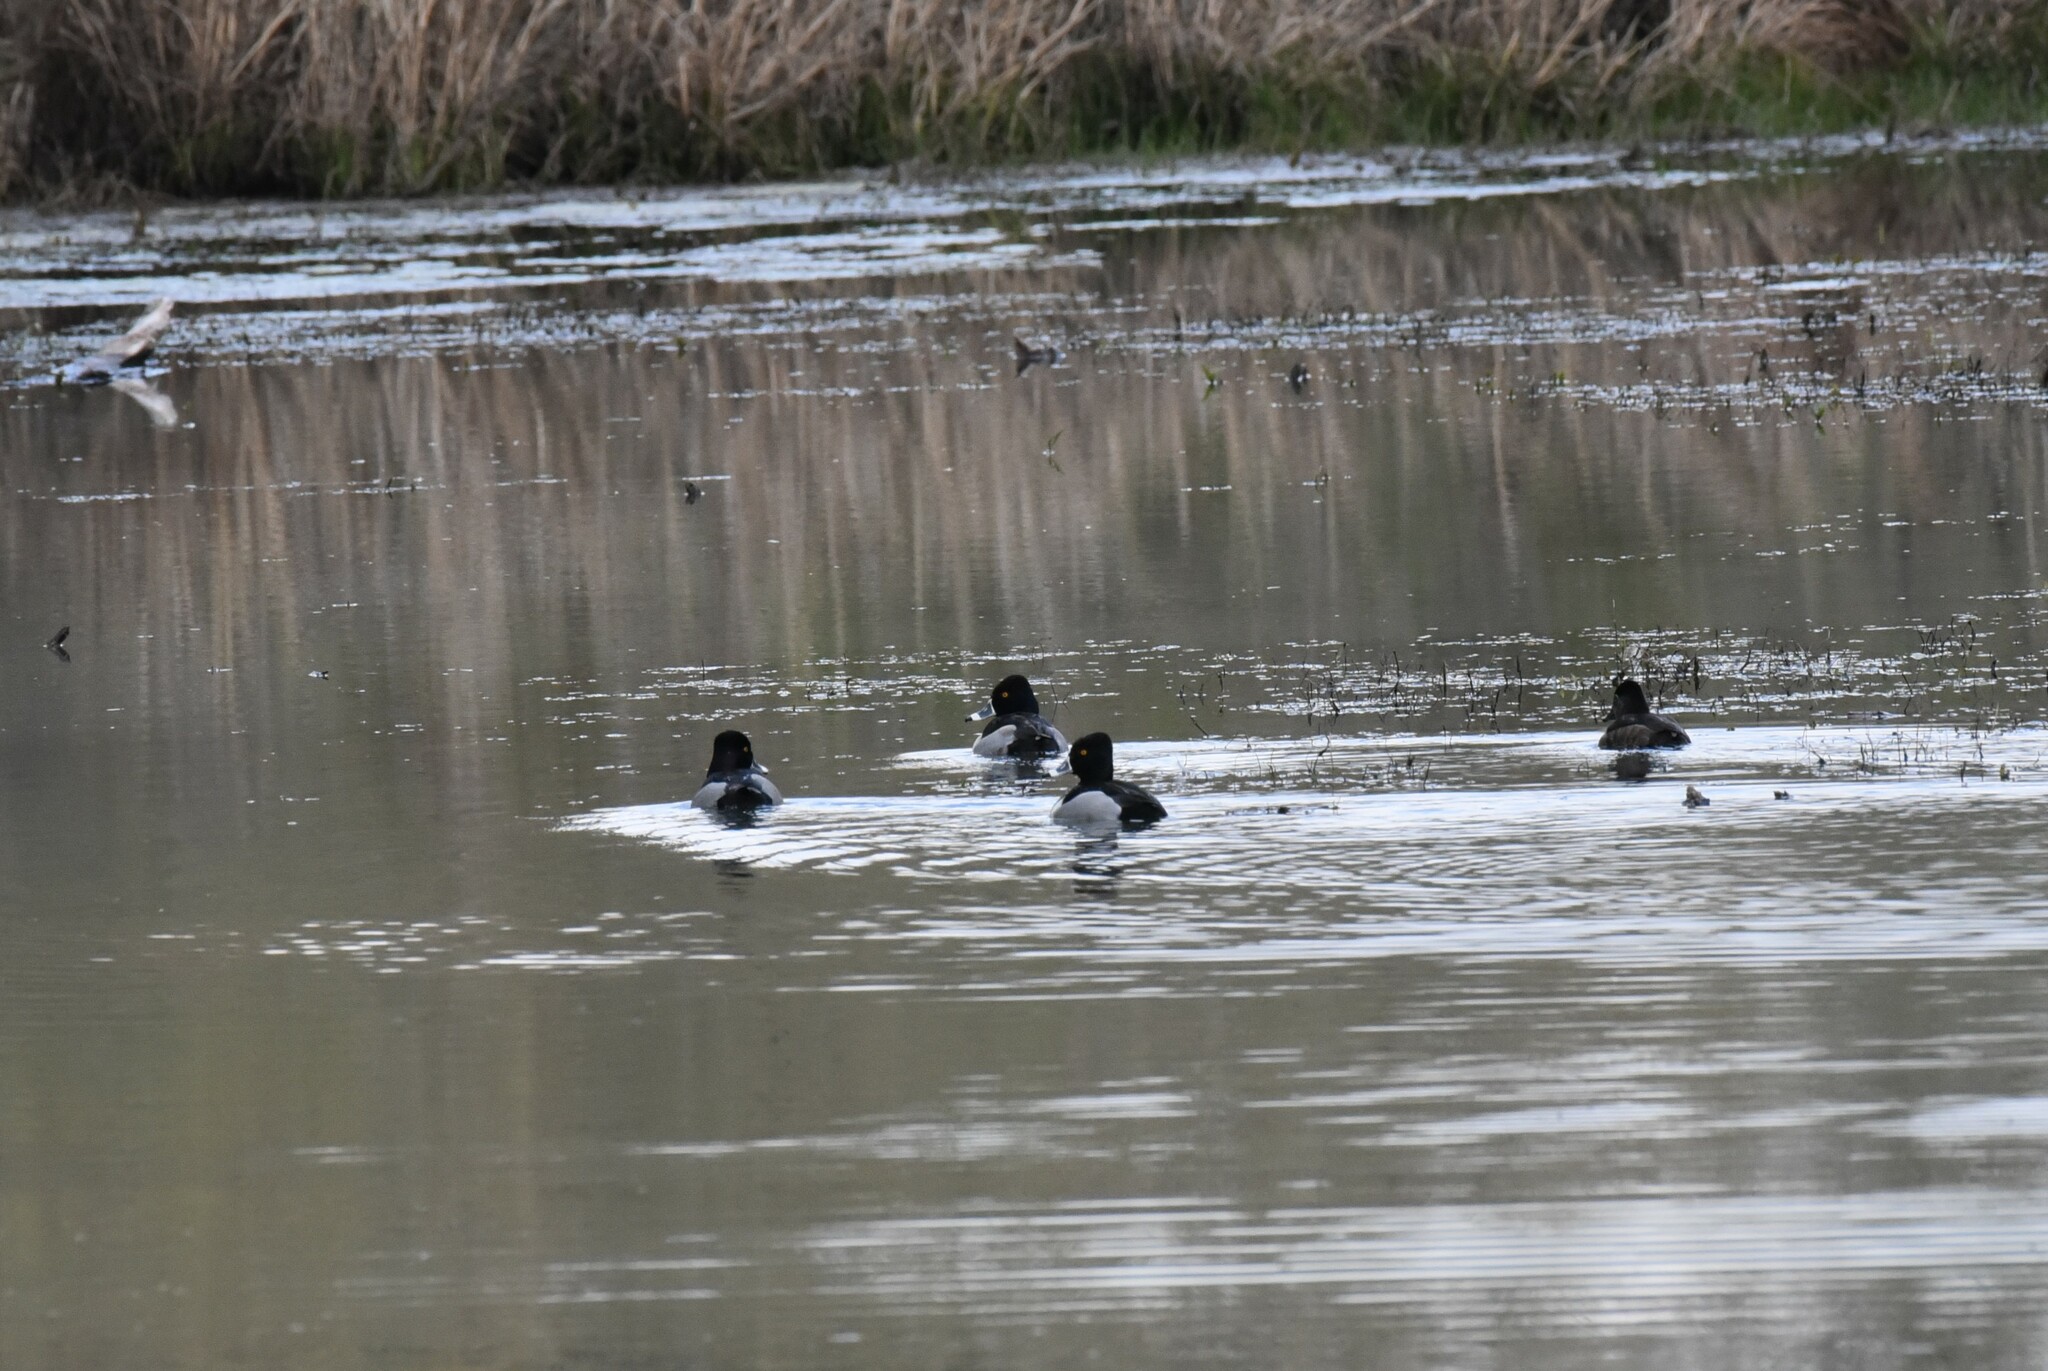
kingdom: Animalia
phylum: Chordata
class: Aves
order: Anseriformes
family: Anatidae
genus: Aythya
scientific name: Aythya collaris
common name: Ring-necked duck
